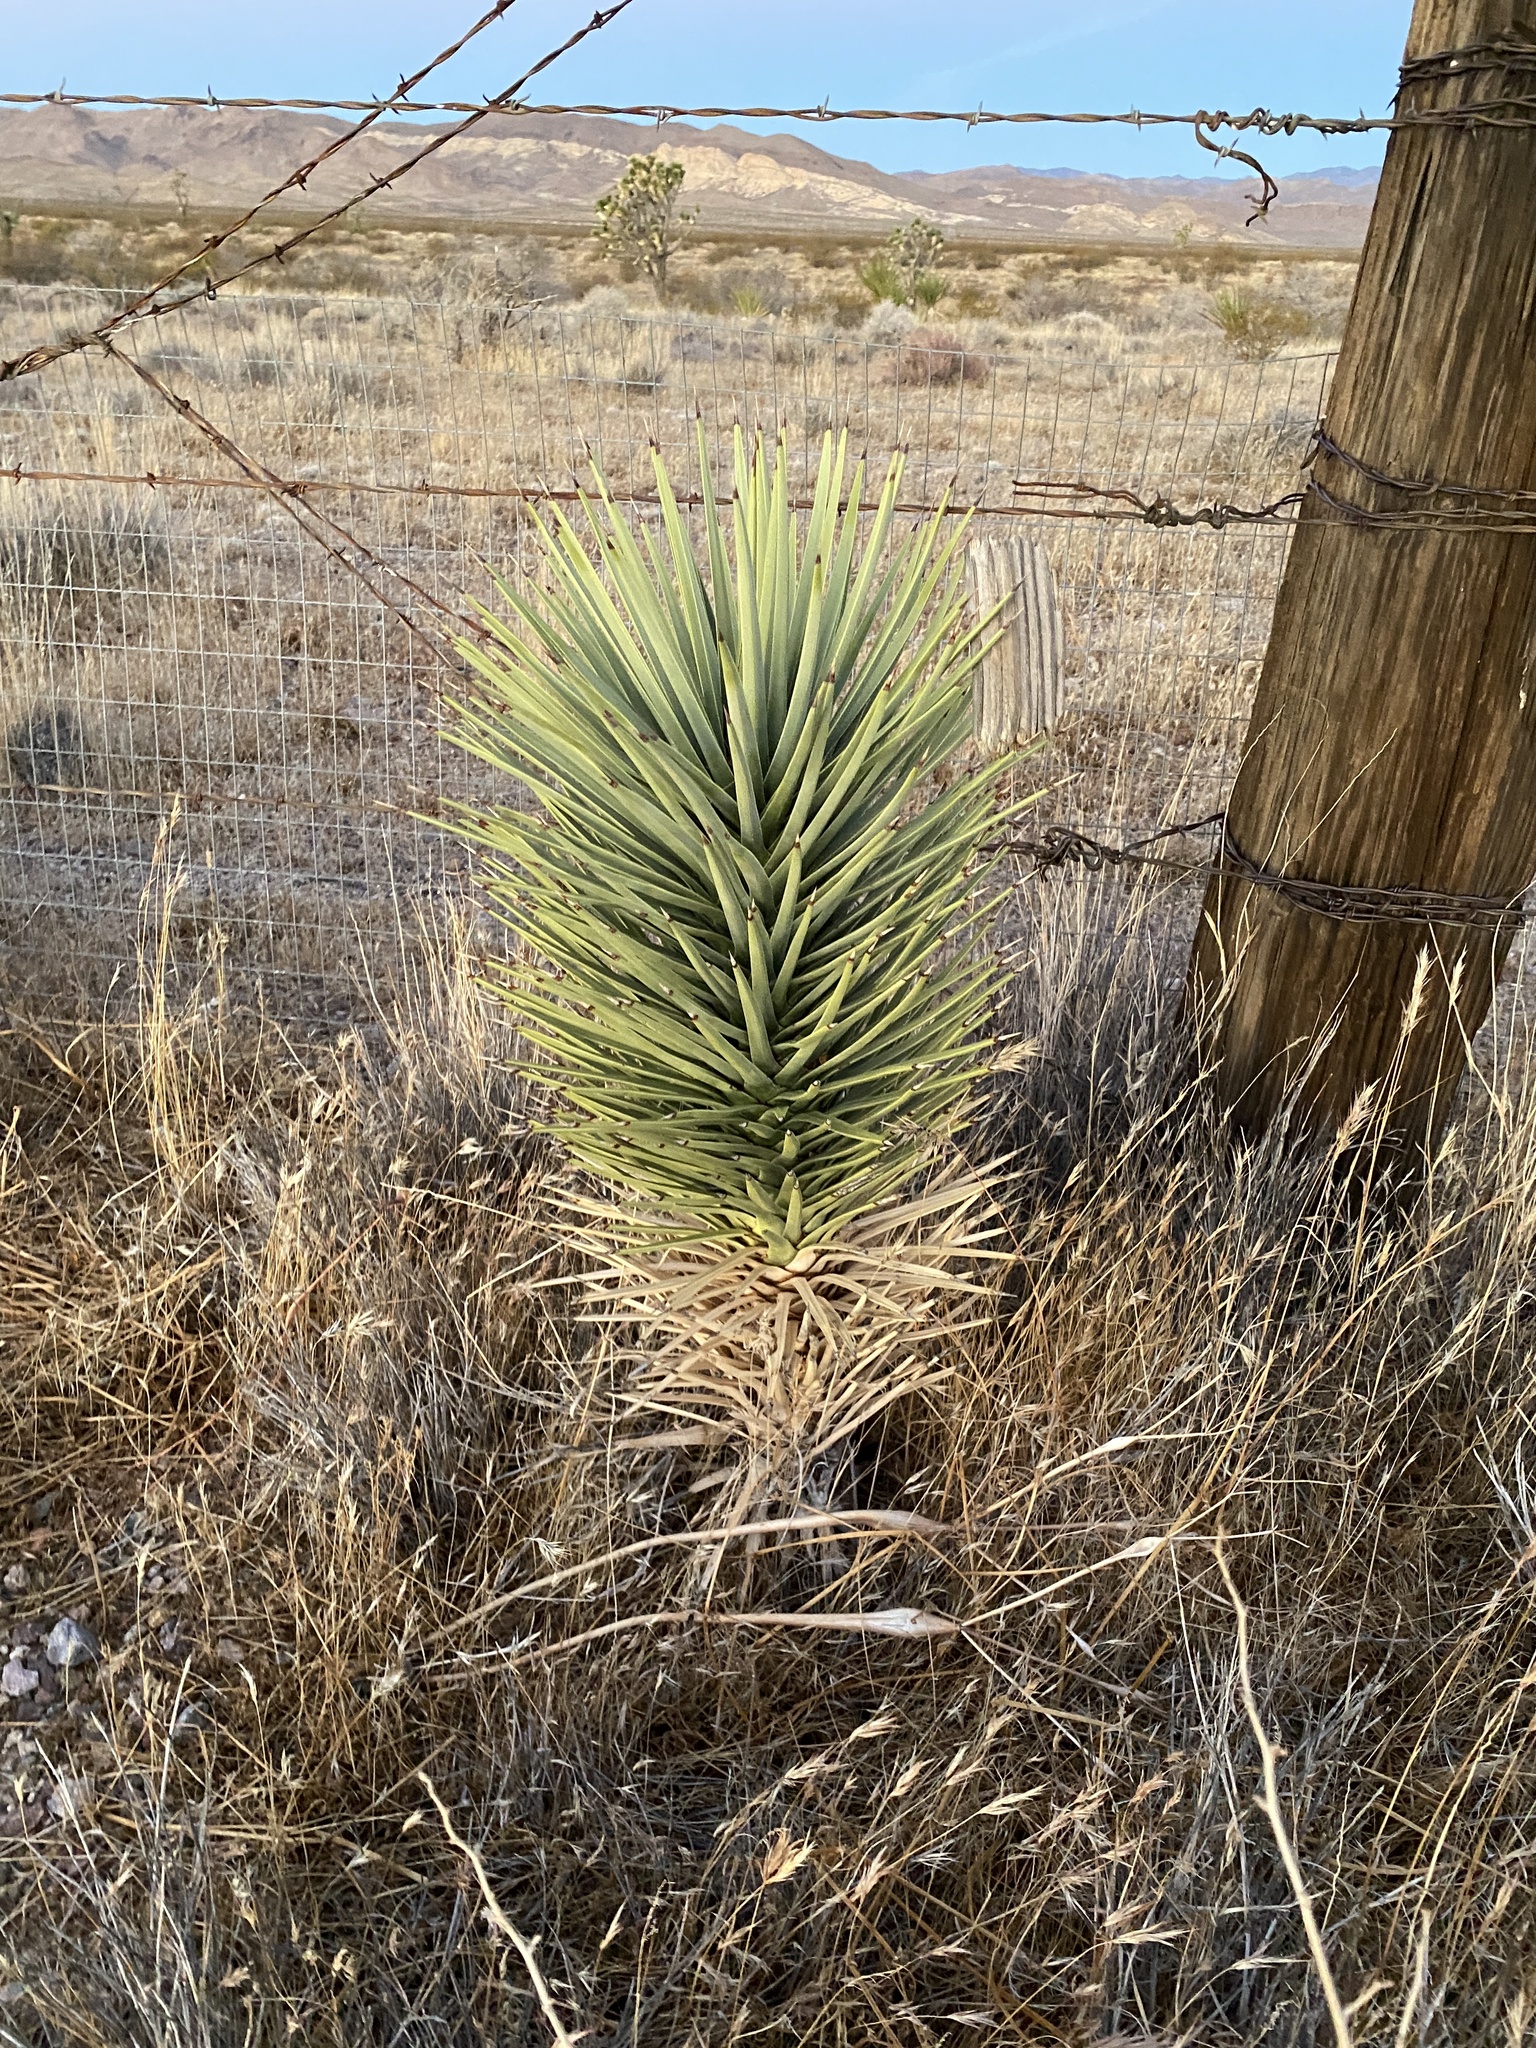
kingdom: Plantae
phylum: Tracheophyta
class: Liliopsida
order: Asparagales
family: Asparagaceae
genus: Yucca
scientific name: Yucca brevifolia
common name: Joshua tree
